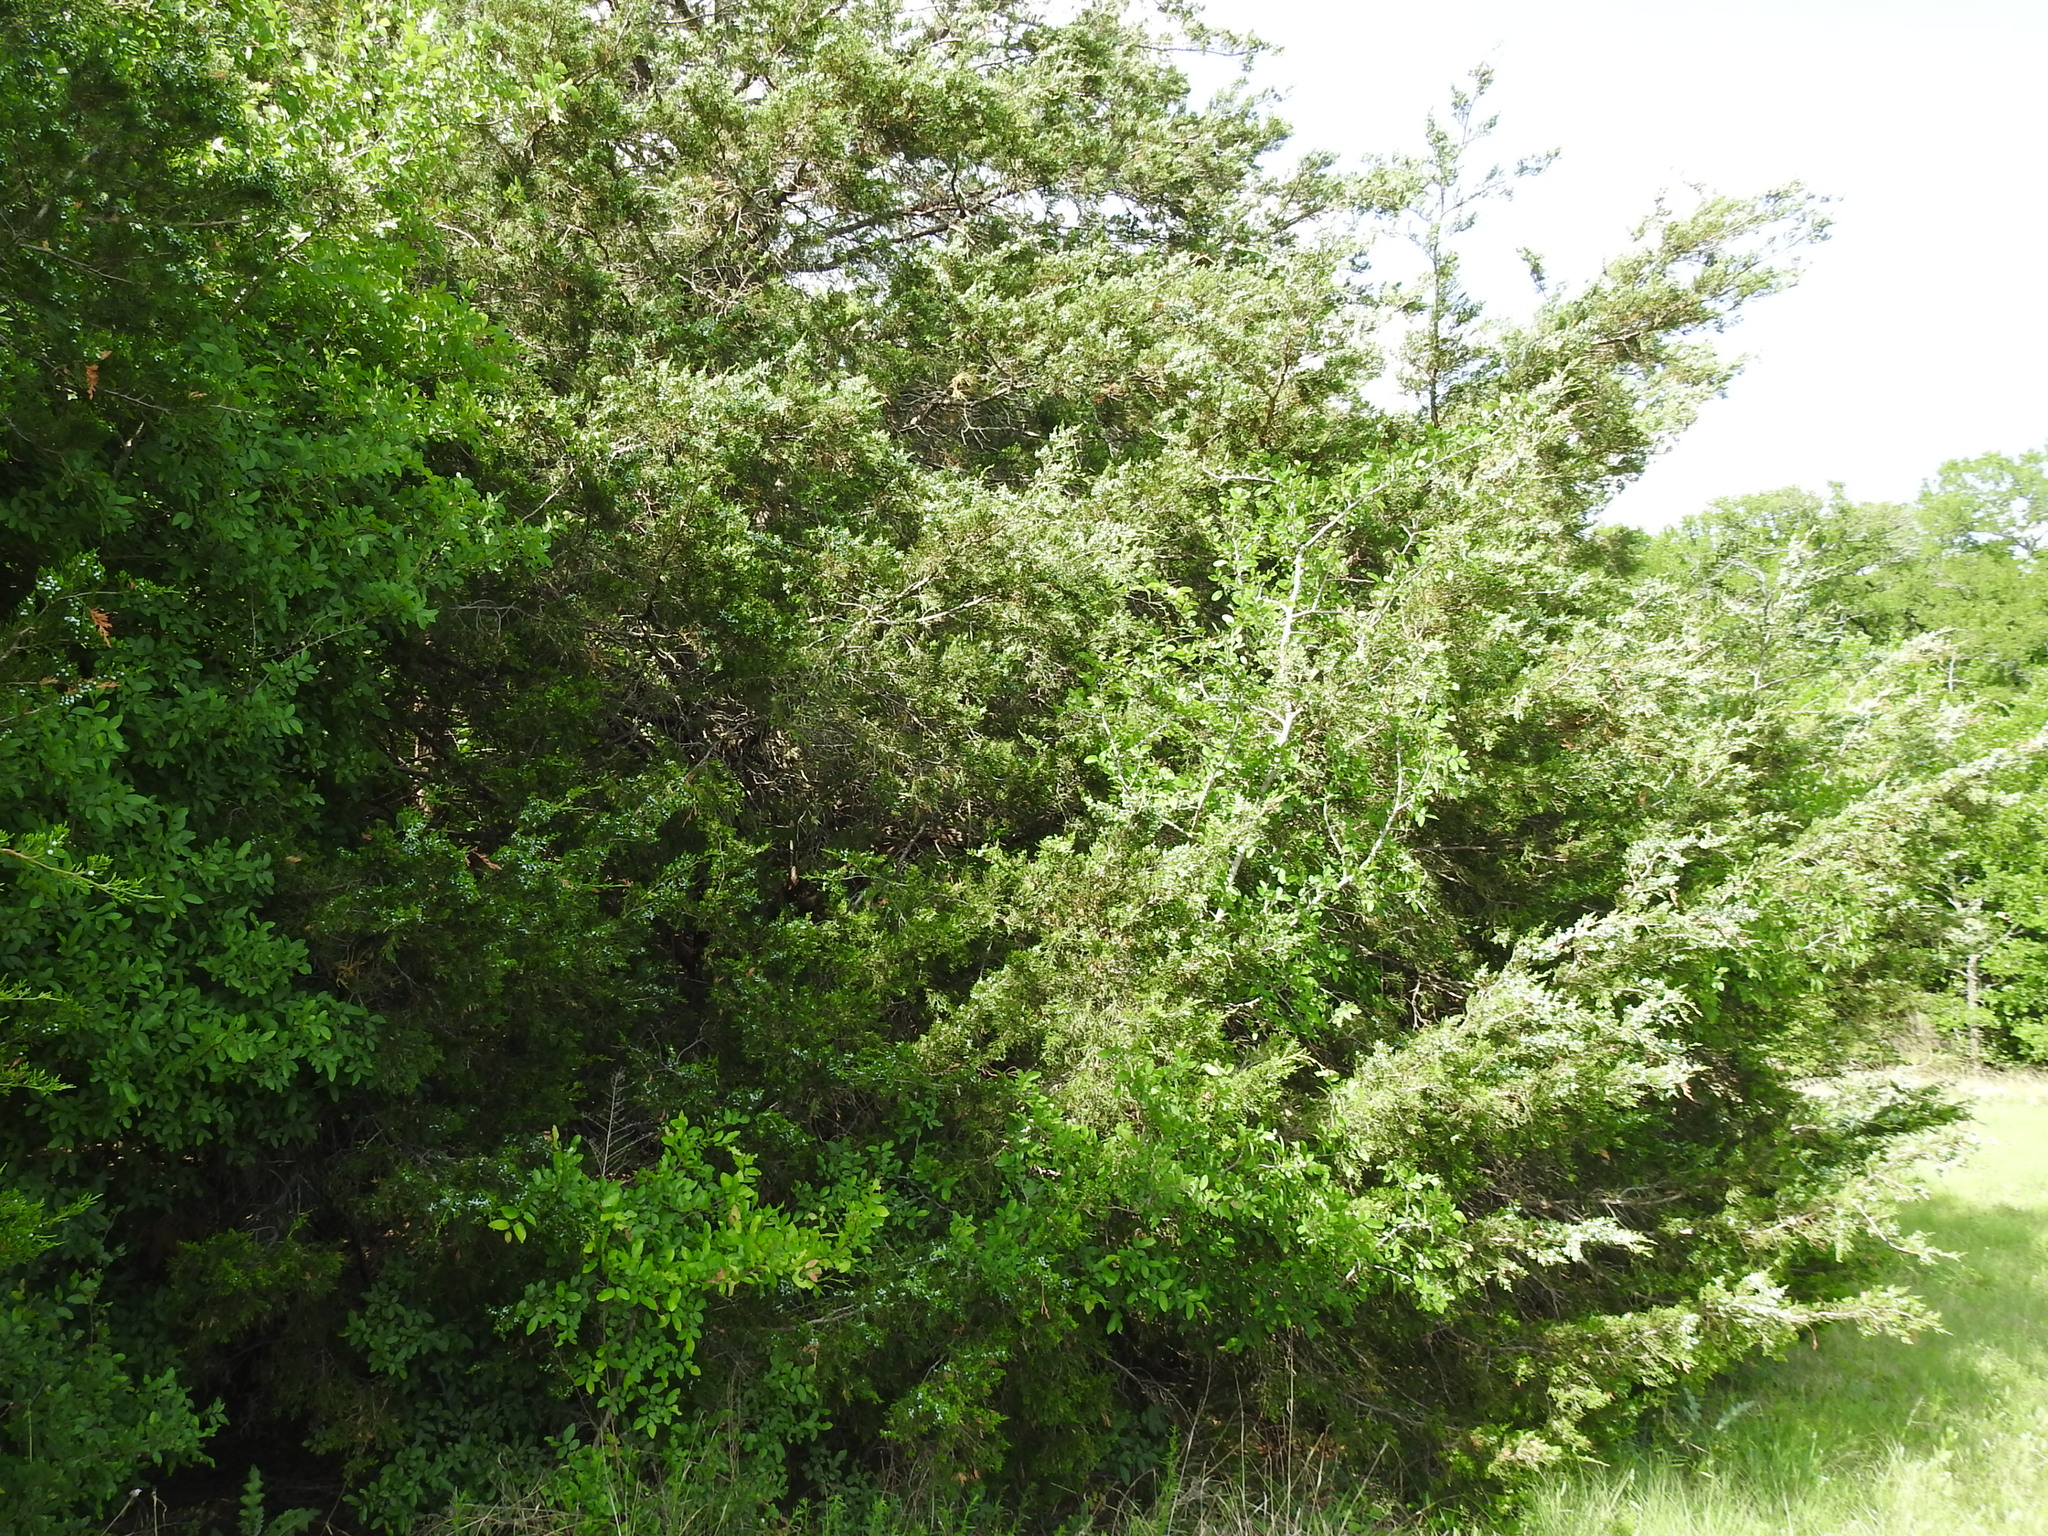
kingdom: Plantae
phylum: Tracheophyta
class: Pinopsida
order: Pinales
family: Cupressaceae
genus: Juniperus
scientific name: Juniperus virginiana
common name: Red juniper
